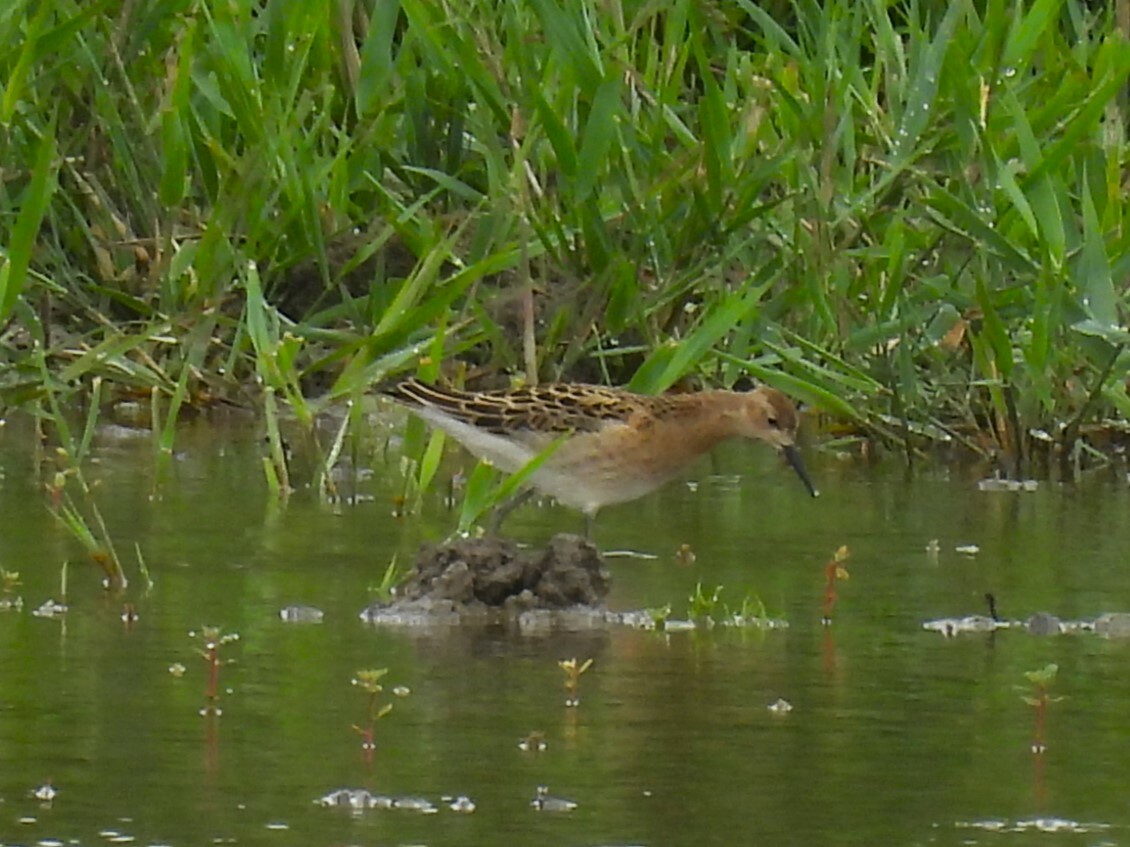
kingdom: Animalia
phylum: Chordata
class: Aves
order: Charadriiformes
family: Scolopacidae
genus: Calidris
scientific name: Calidris pugnax
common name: Ruff
